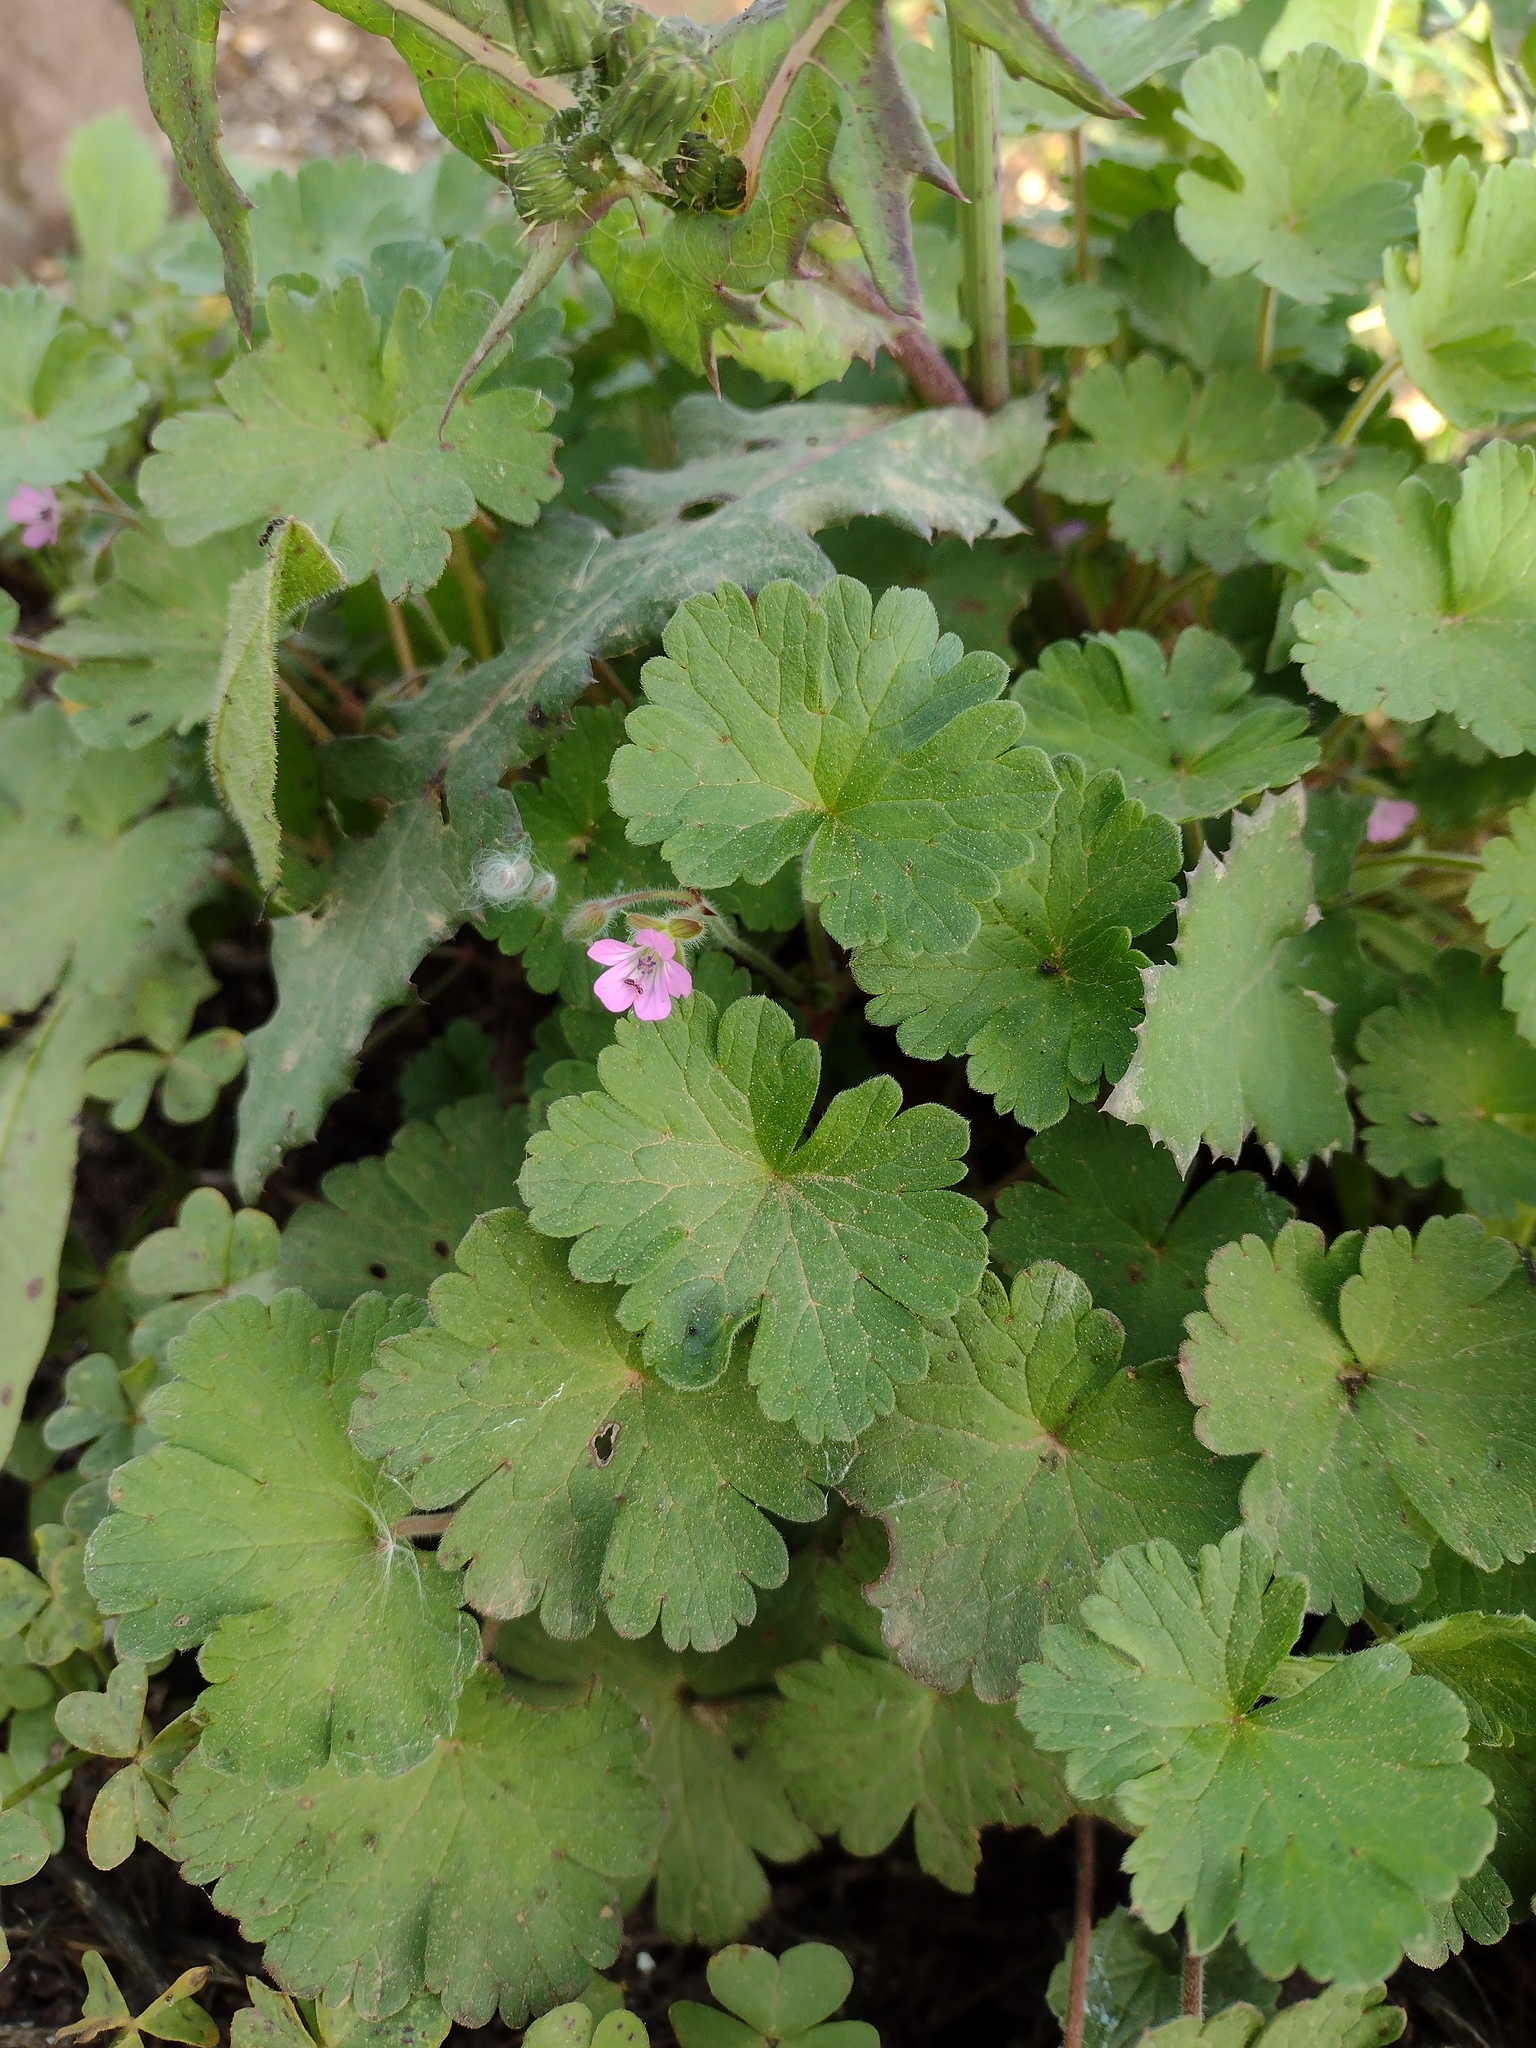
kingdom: Plantae
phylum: Tracheophyta
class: Magnoliopsida
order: Geraniales
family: Geraniaceae
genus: Geranium
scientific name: Geranium rotundifolium
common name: Round-leaved crane's-bill
